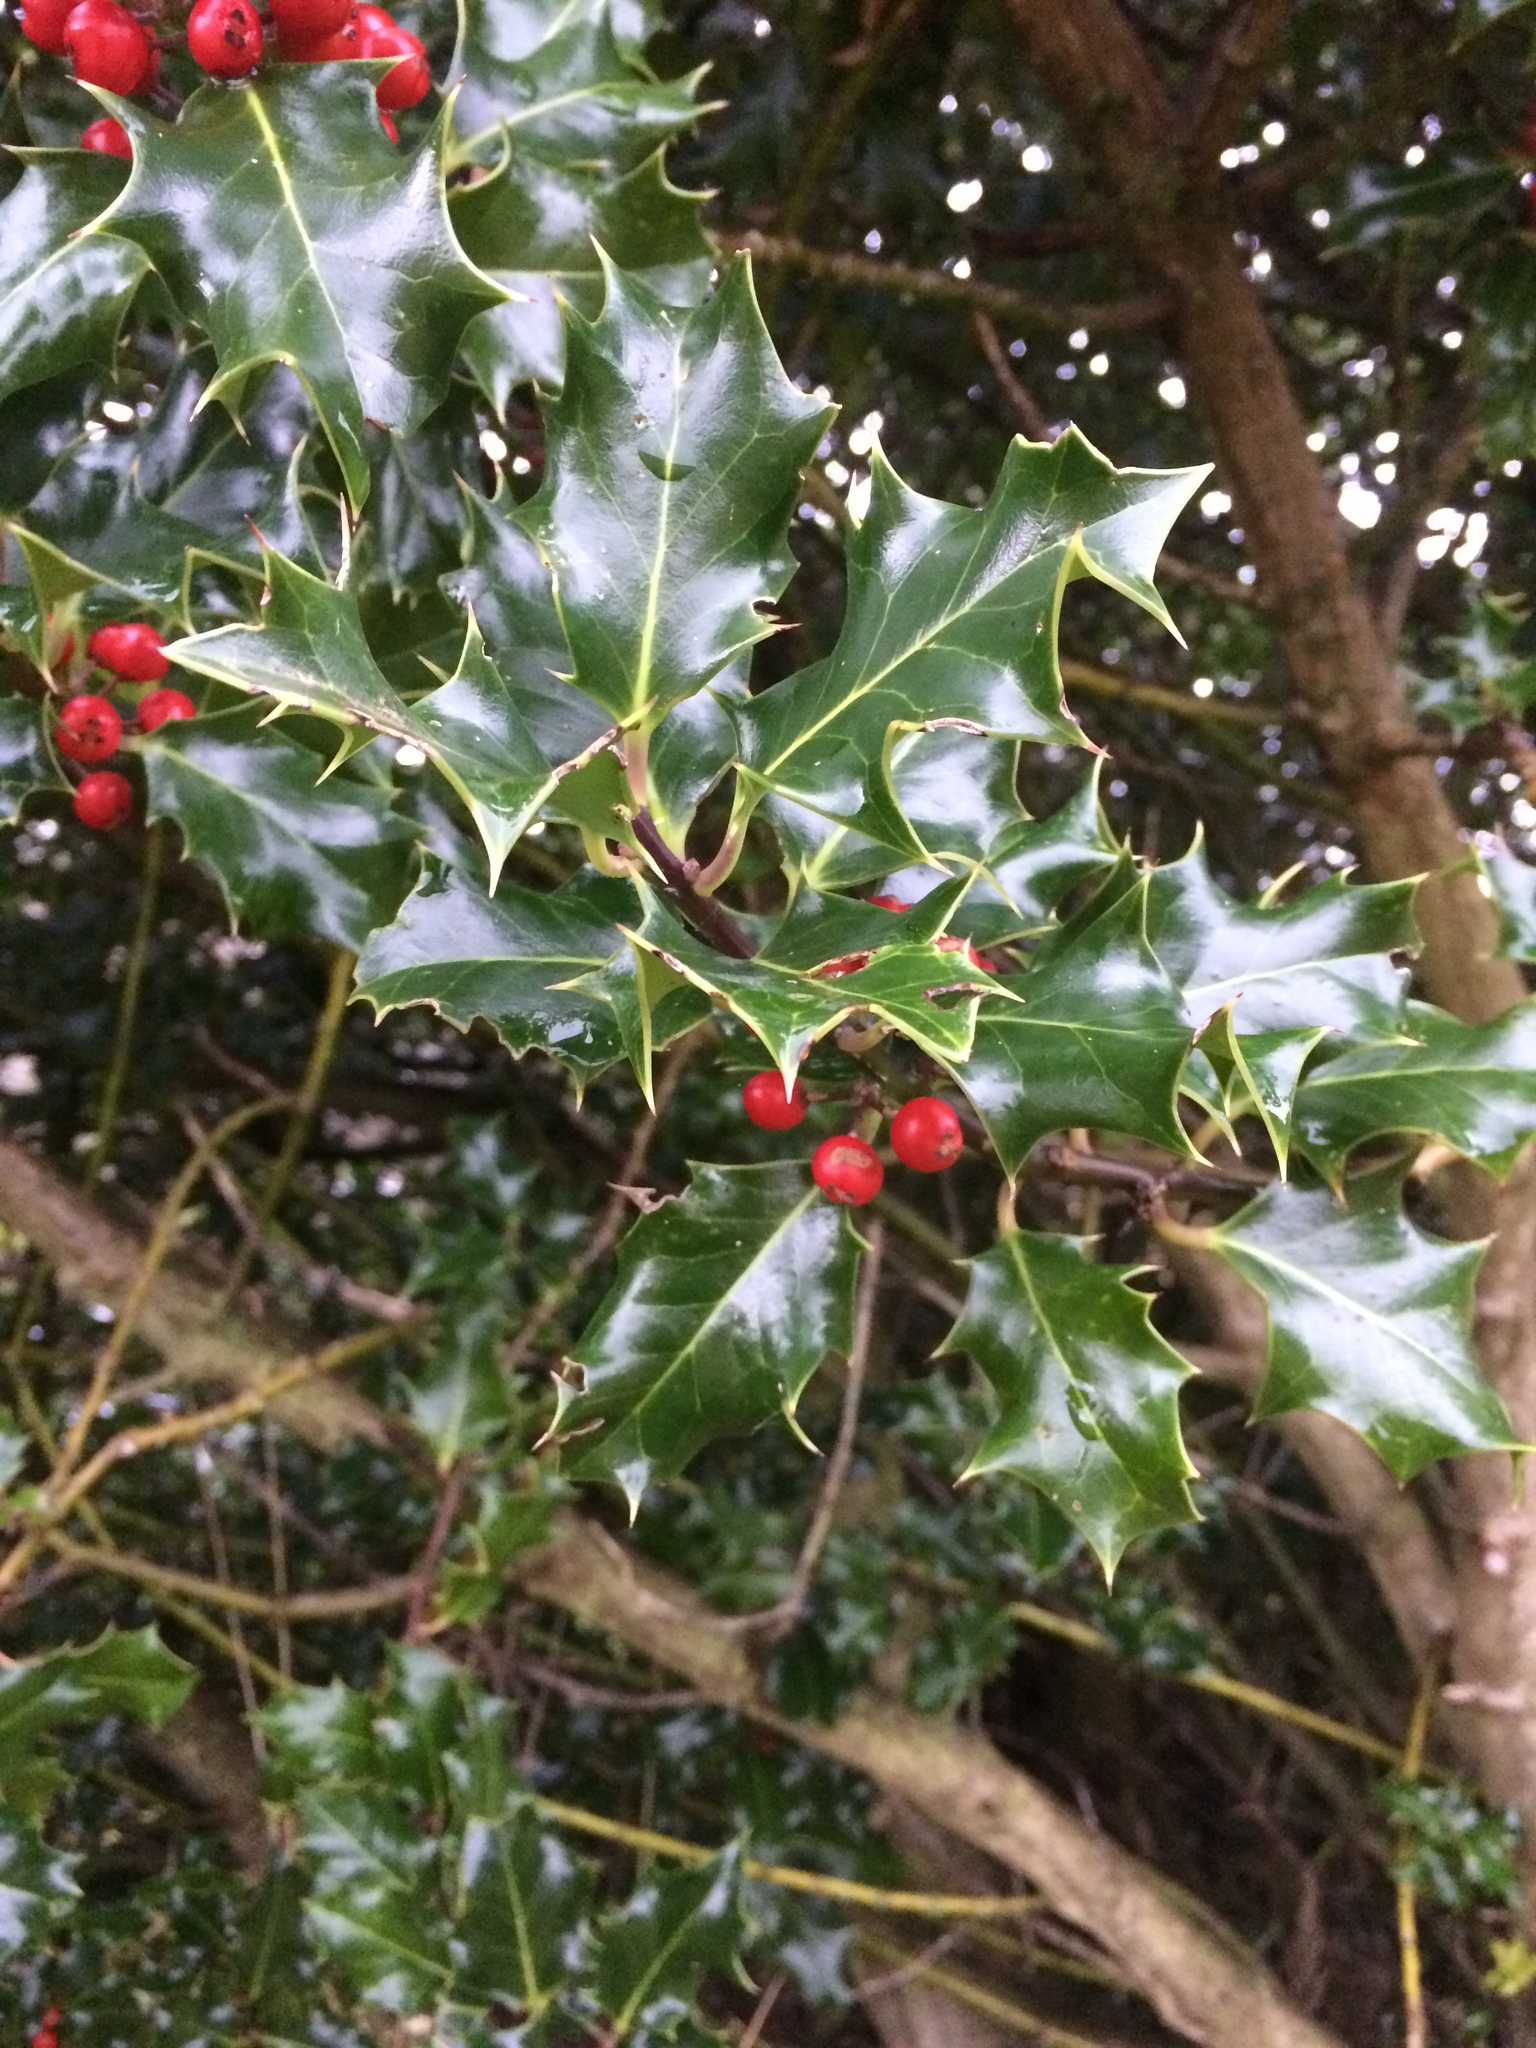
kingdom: Plantae
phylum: Tracheophyta
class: Magnoliopsida
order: Aquifoliales
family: Aquifoliaceae
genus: Ilex
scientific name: Ilex aquifolium
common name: English holly
